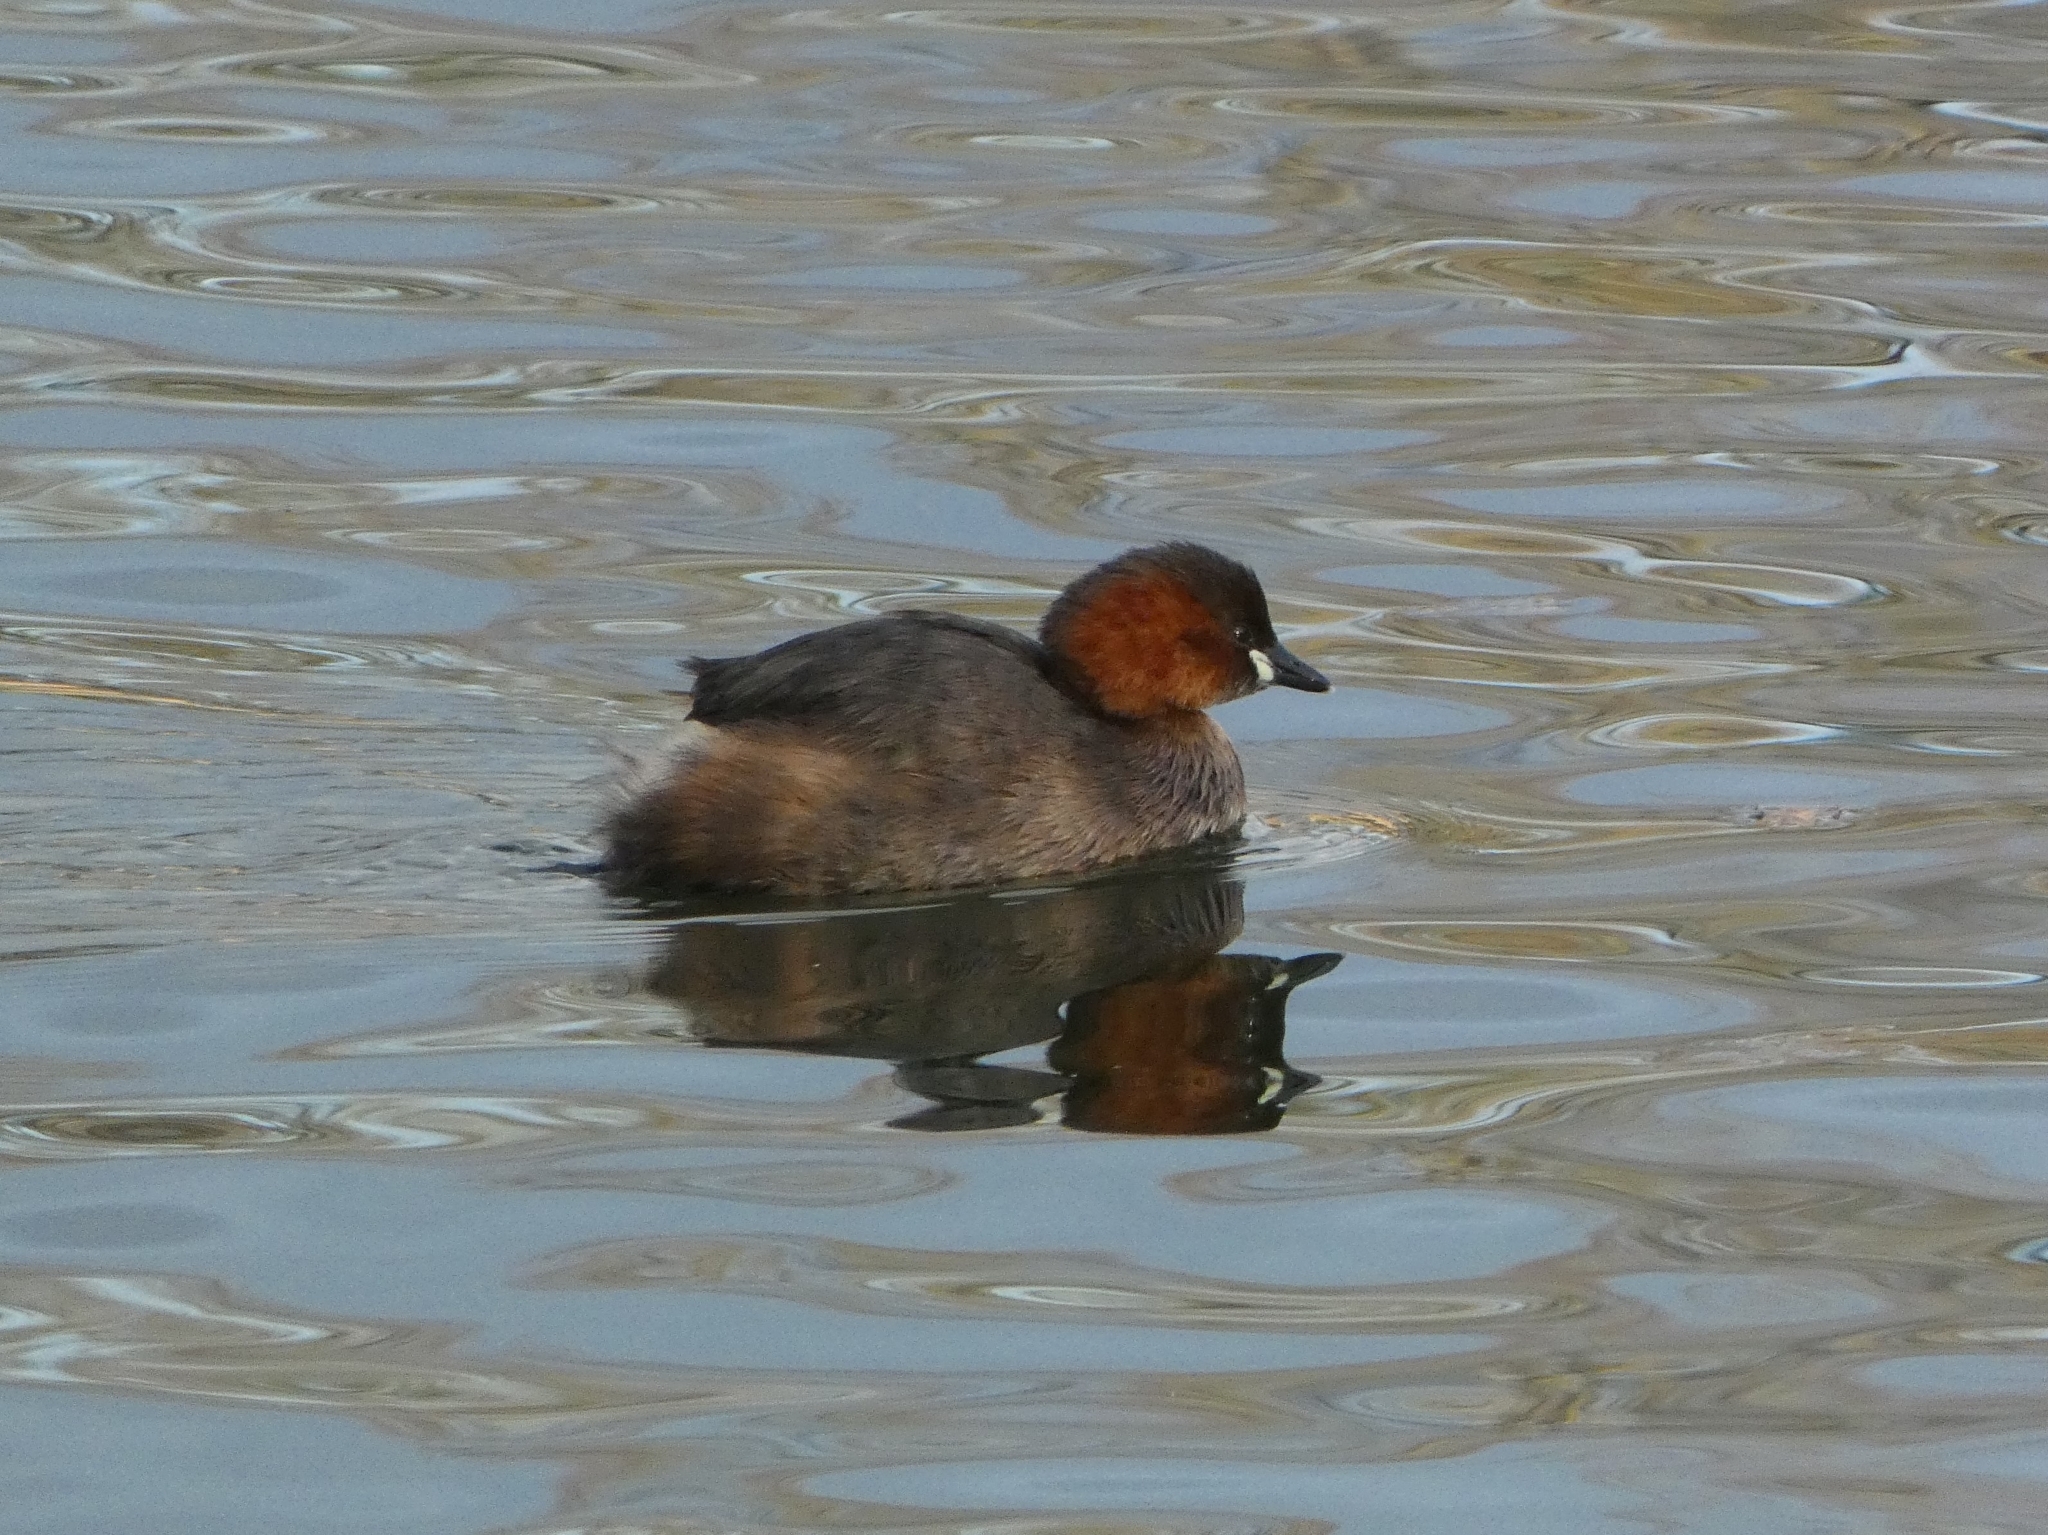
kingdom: Animalia
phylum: Chordata
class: Aves
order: Podicipediformes
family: Podicipedidae
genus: Tachybaptus
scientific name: Tachybaptus ruficollis
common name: Little grebe
